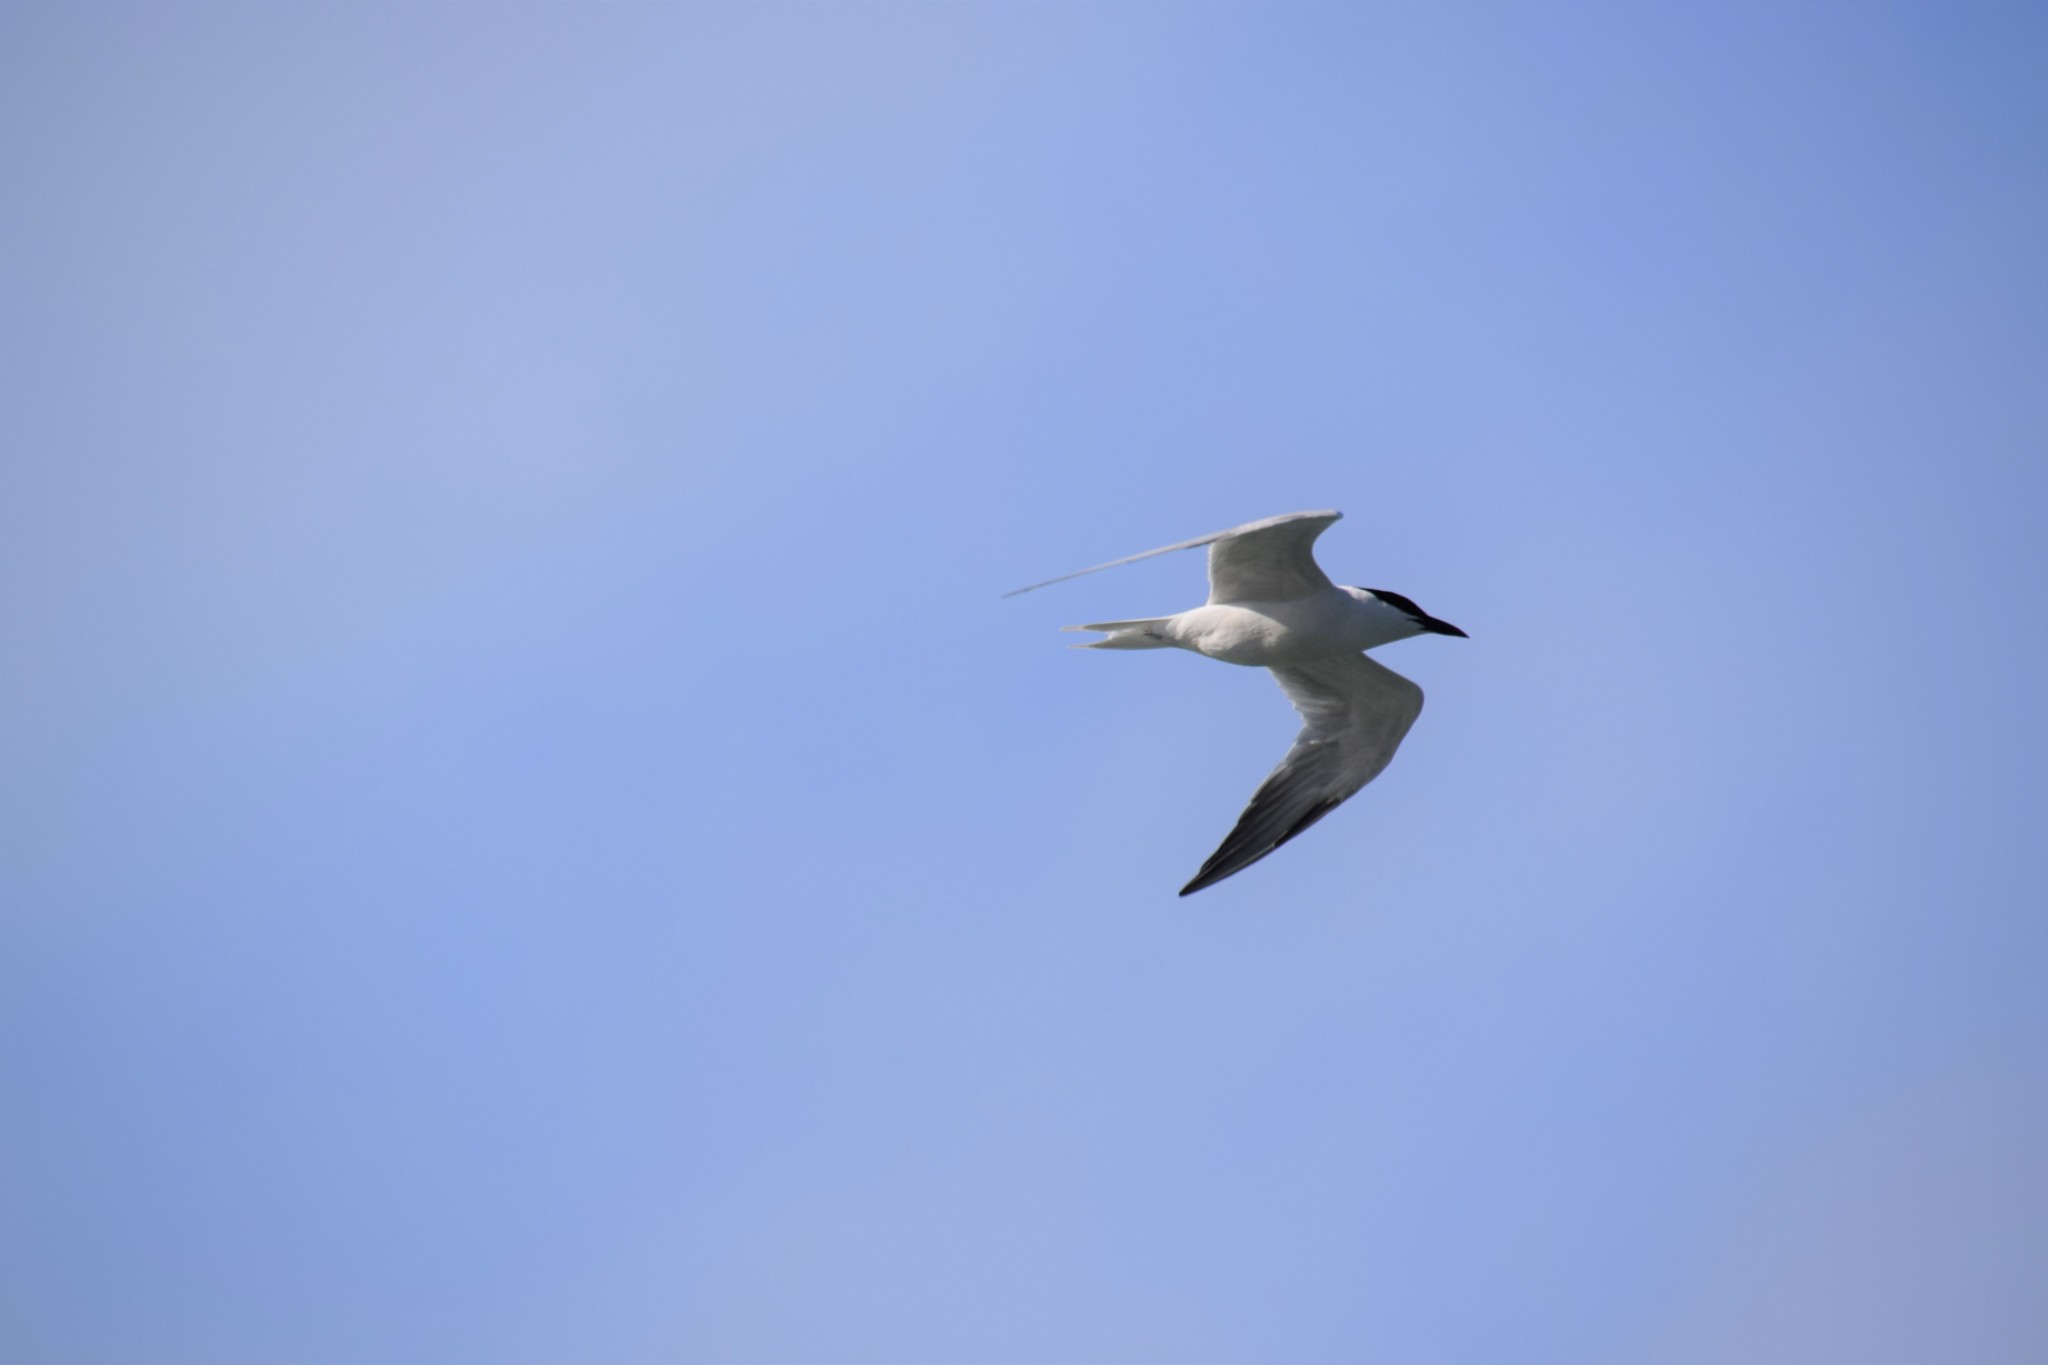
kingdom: Animalia
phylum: Chordata
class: Aves
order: Charadriiformes
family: Laridae
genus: Gelochelidon
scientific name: Gelochelidon macrotarsa
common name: Australian tern
